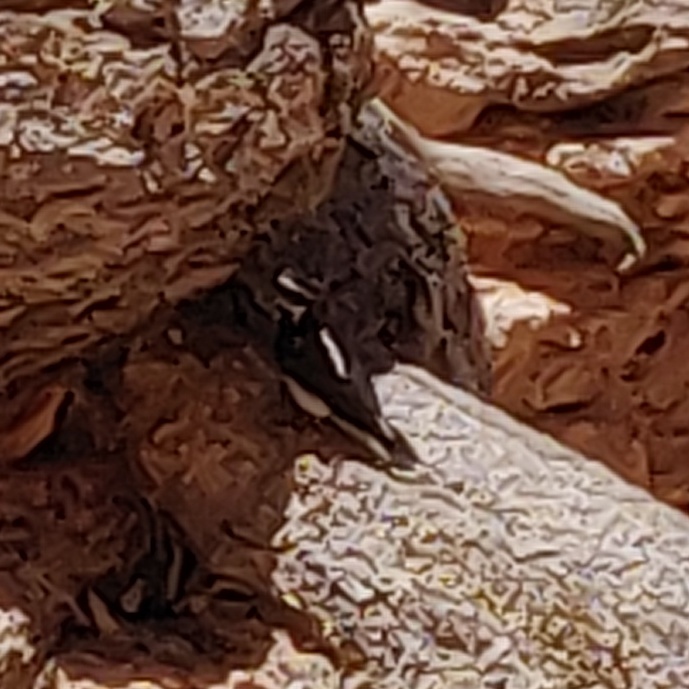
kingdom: Animalia
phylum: Chordata
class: Aves
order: Piciformes
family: Picidae
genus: Leuconotopicus
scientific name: Leuconotopicus villosus
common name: Hairy woodpecker
